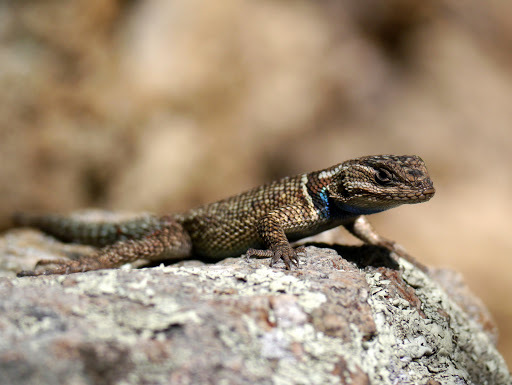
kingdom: Animalia
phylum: Chordata
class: Squamata
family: Phrynosomatidae
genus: Sceloporus
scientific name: Sceloporus jarrovii
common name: Yarrow's spiny lizard
